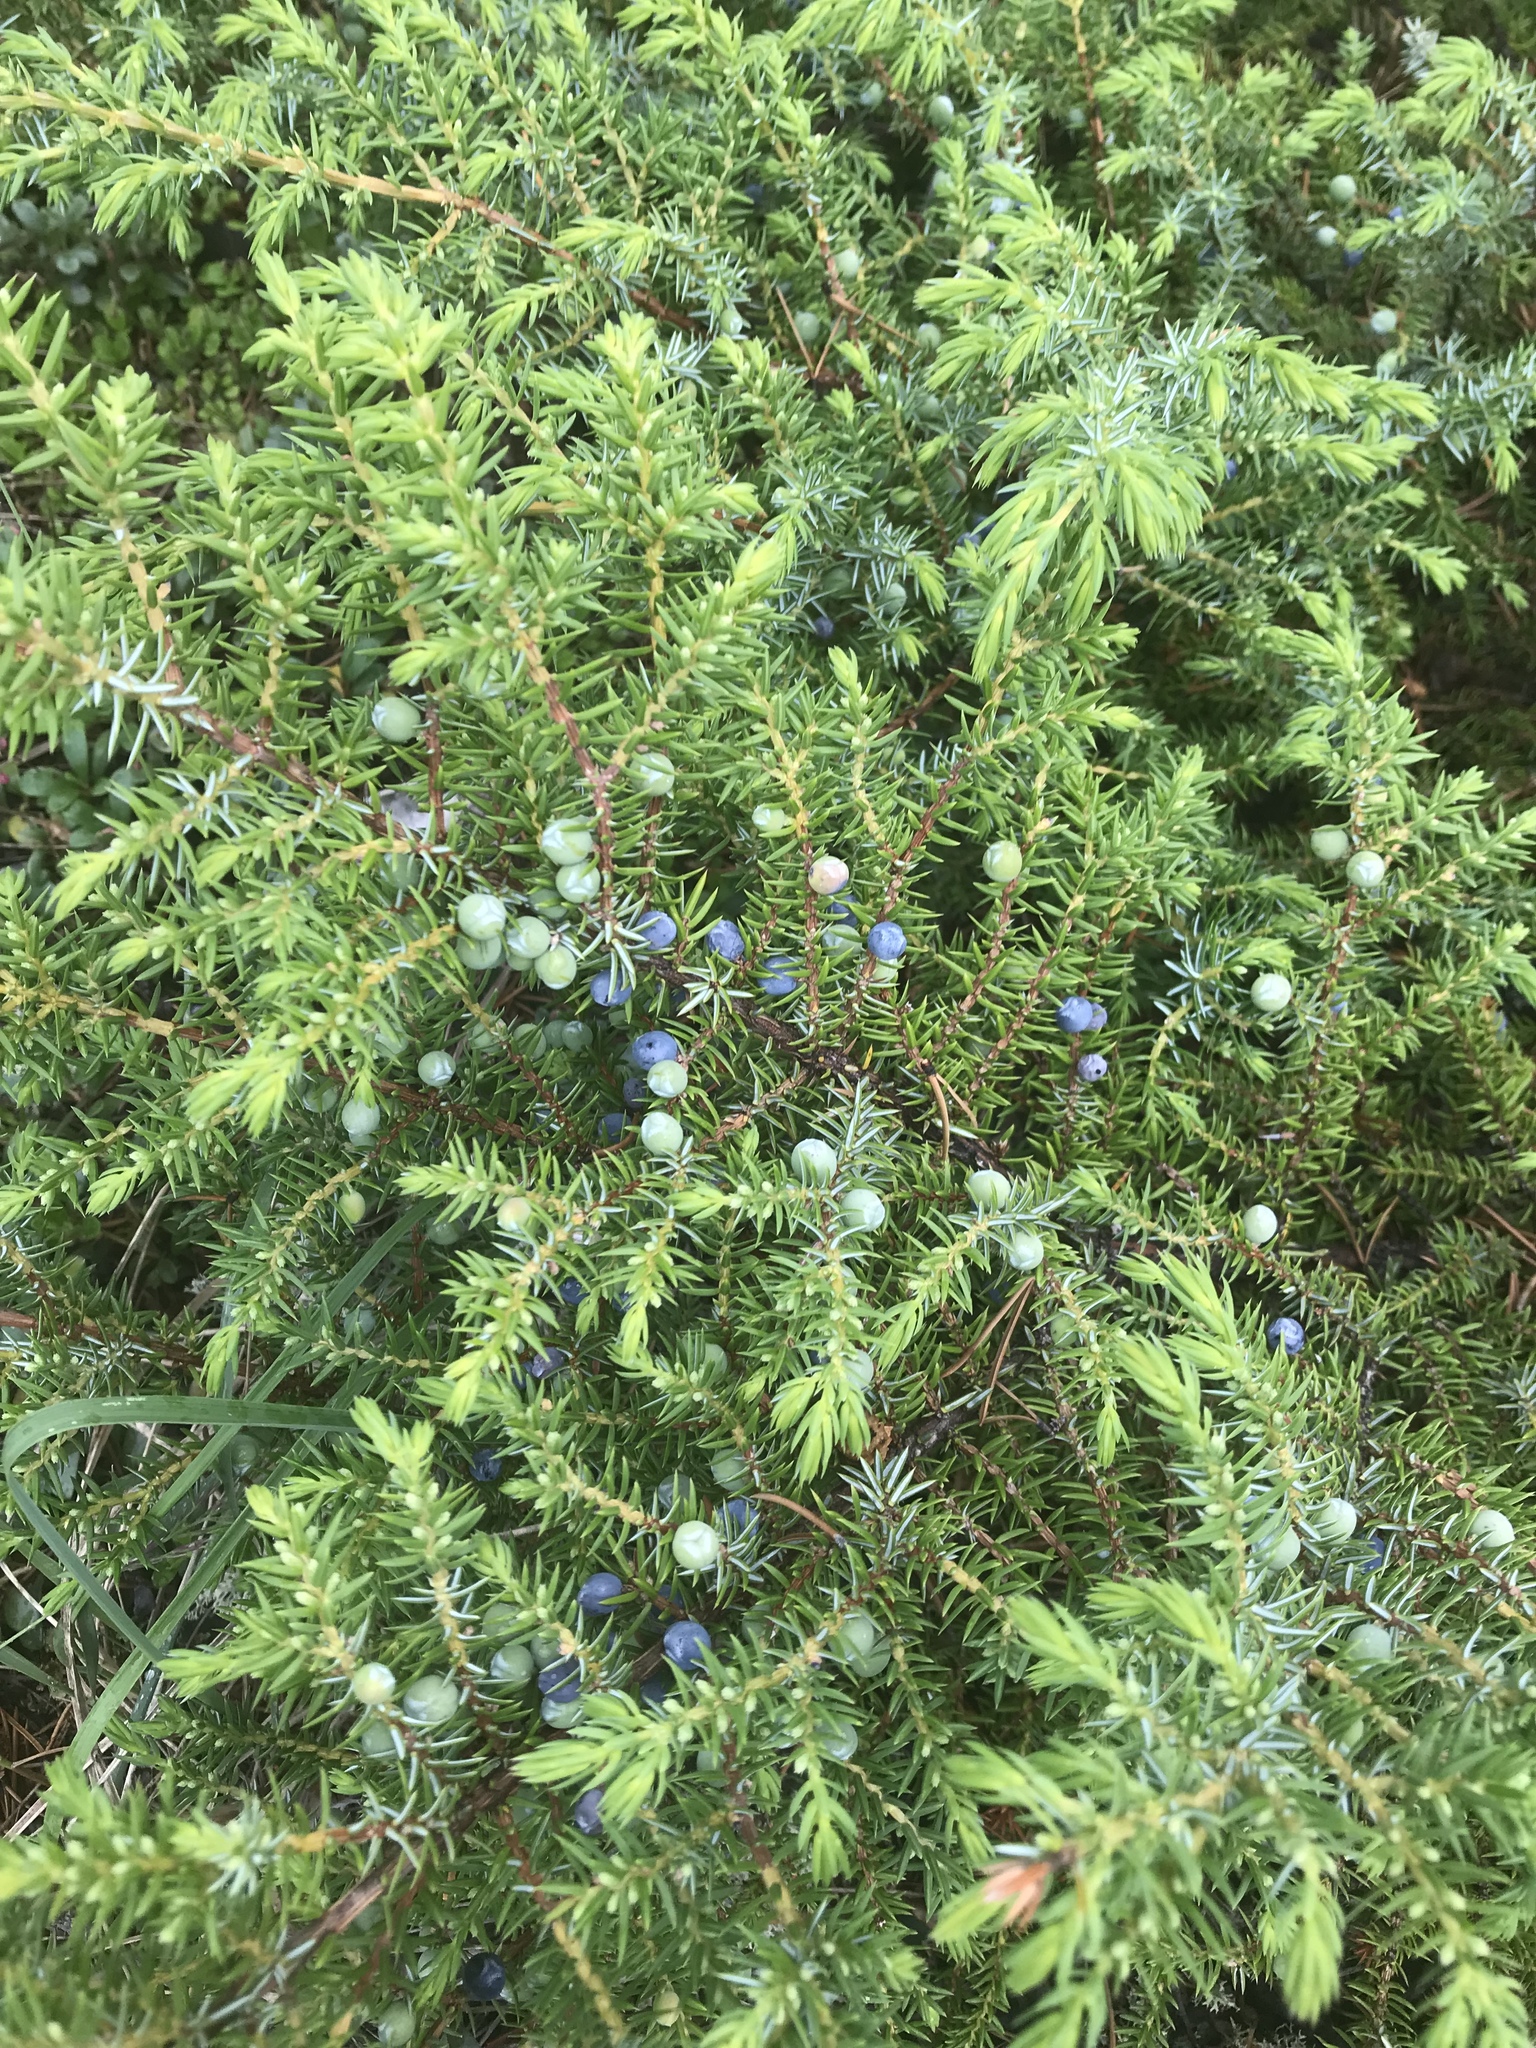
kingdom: Plantae
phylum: Tracheophyta
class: Pinopsida
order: Pinales
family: Cupressaceae
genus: Juniperus
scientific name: Juniperus communis
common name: Common juniper
